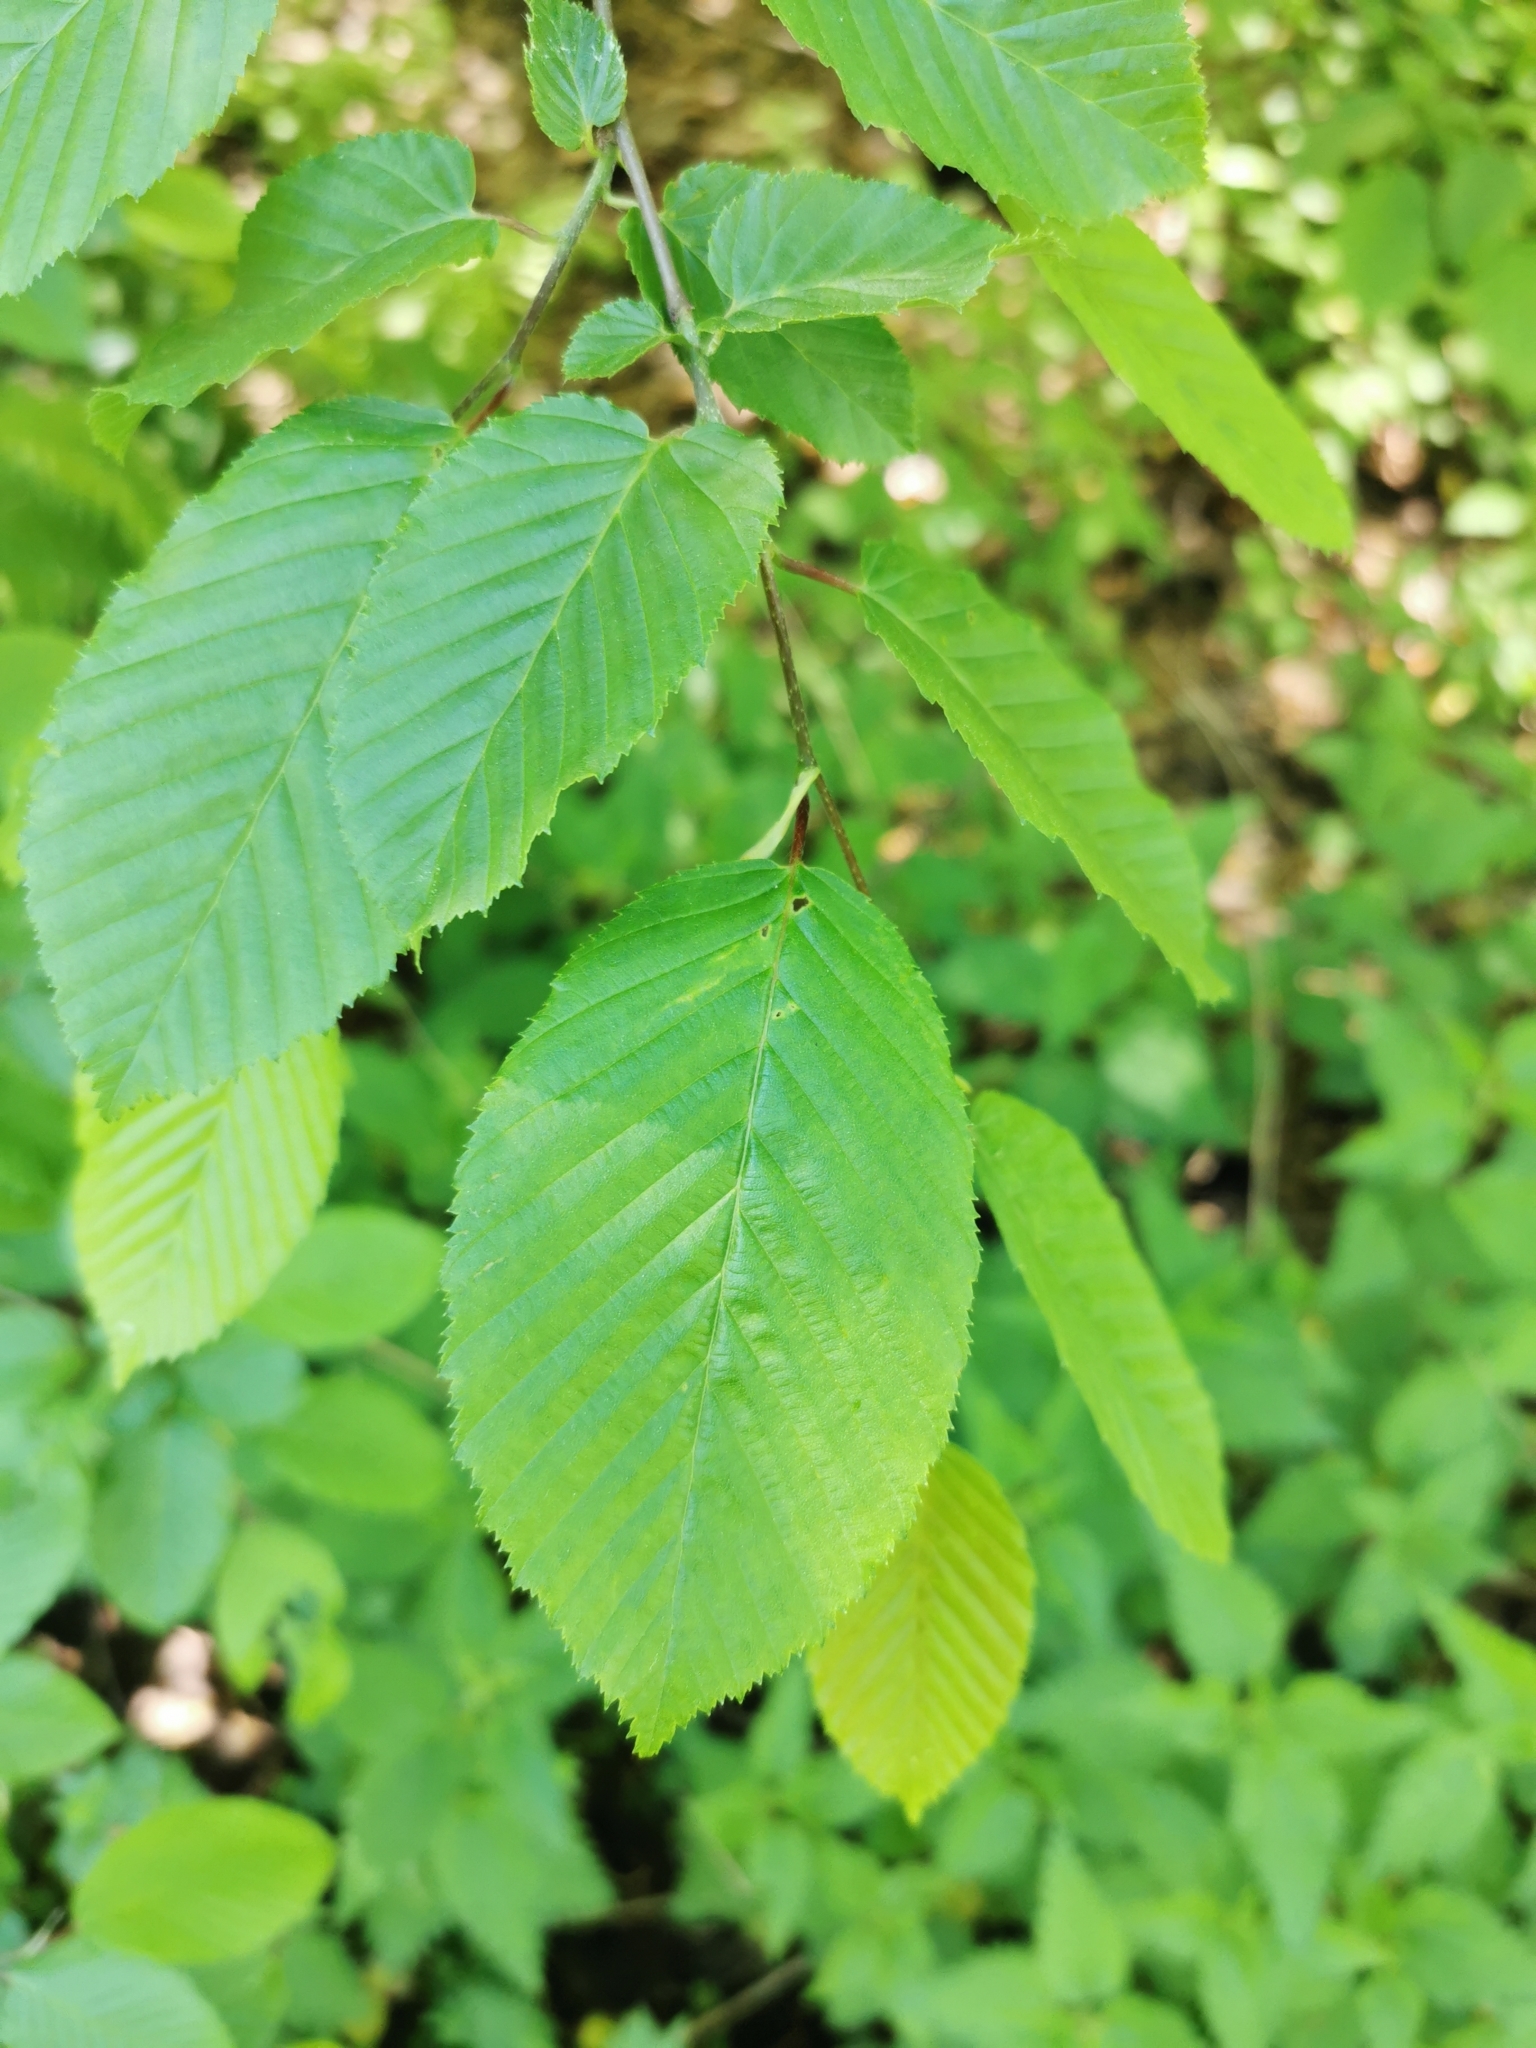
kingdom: Plantae
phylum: Tracheophyta
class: Magnoliopsida
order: Fagales
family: Betulaceae
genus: Carpinus
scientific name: Carpinus betulus
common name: Hornbeam
